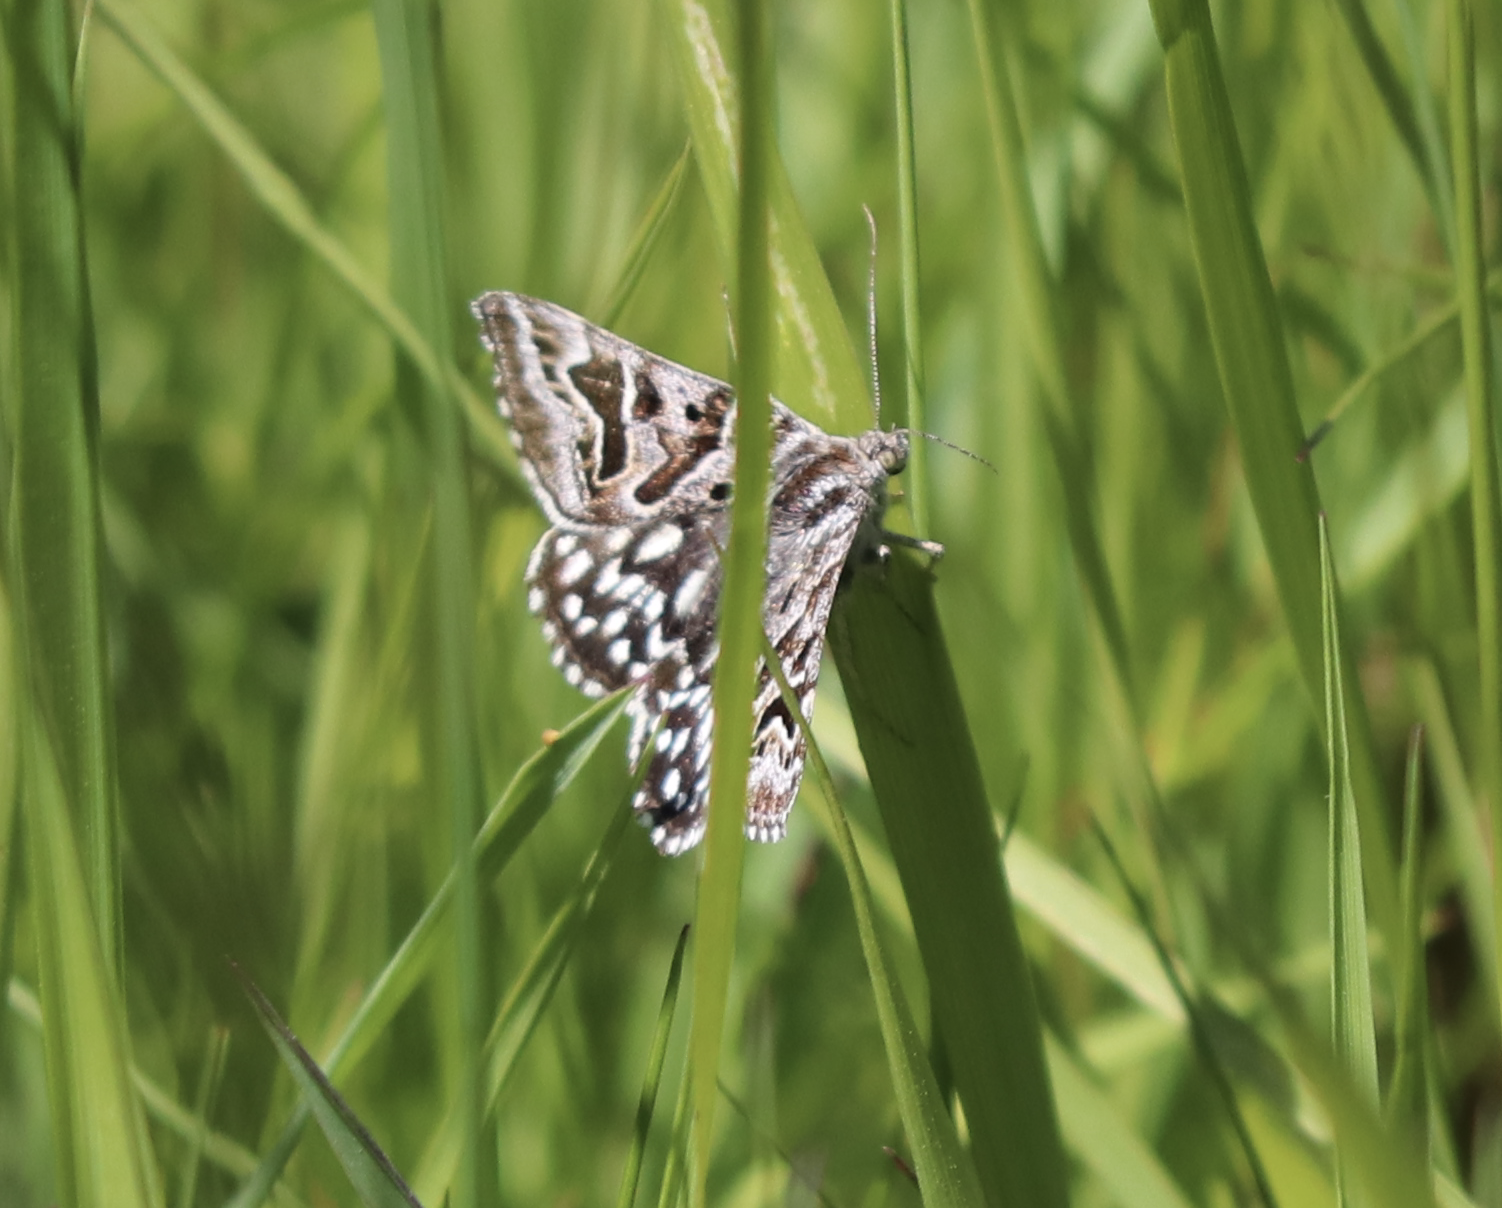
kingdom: Animalia
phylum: Arthropoda
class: Insecta
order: Lepidoptera
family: Erebidae
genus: Callistege
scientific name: Callistege mi
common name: Mother shipton
